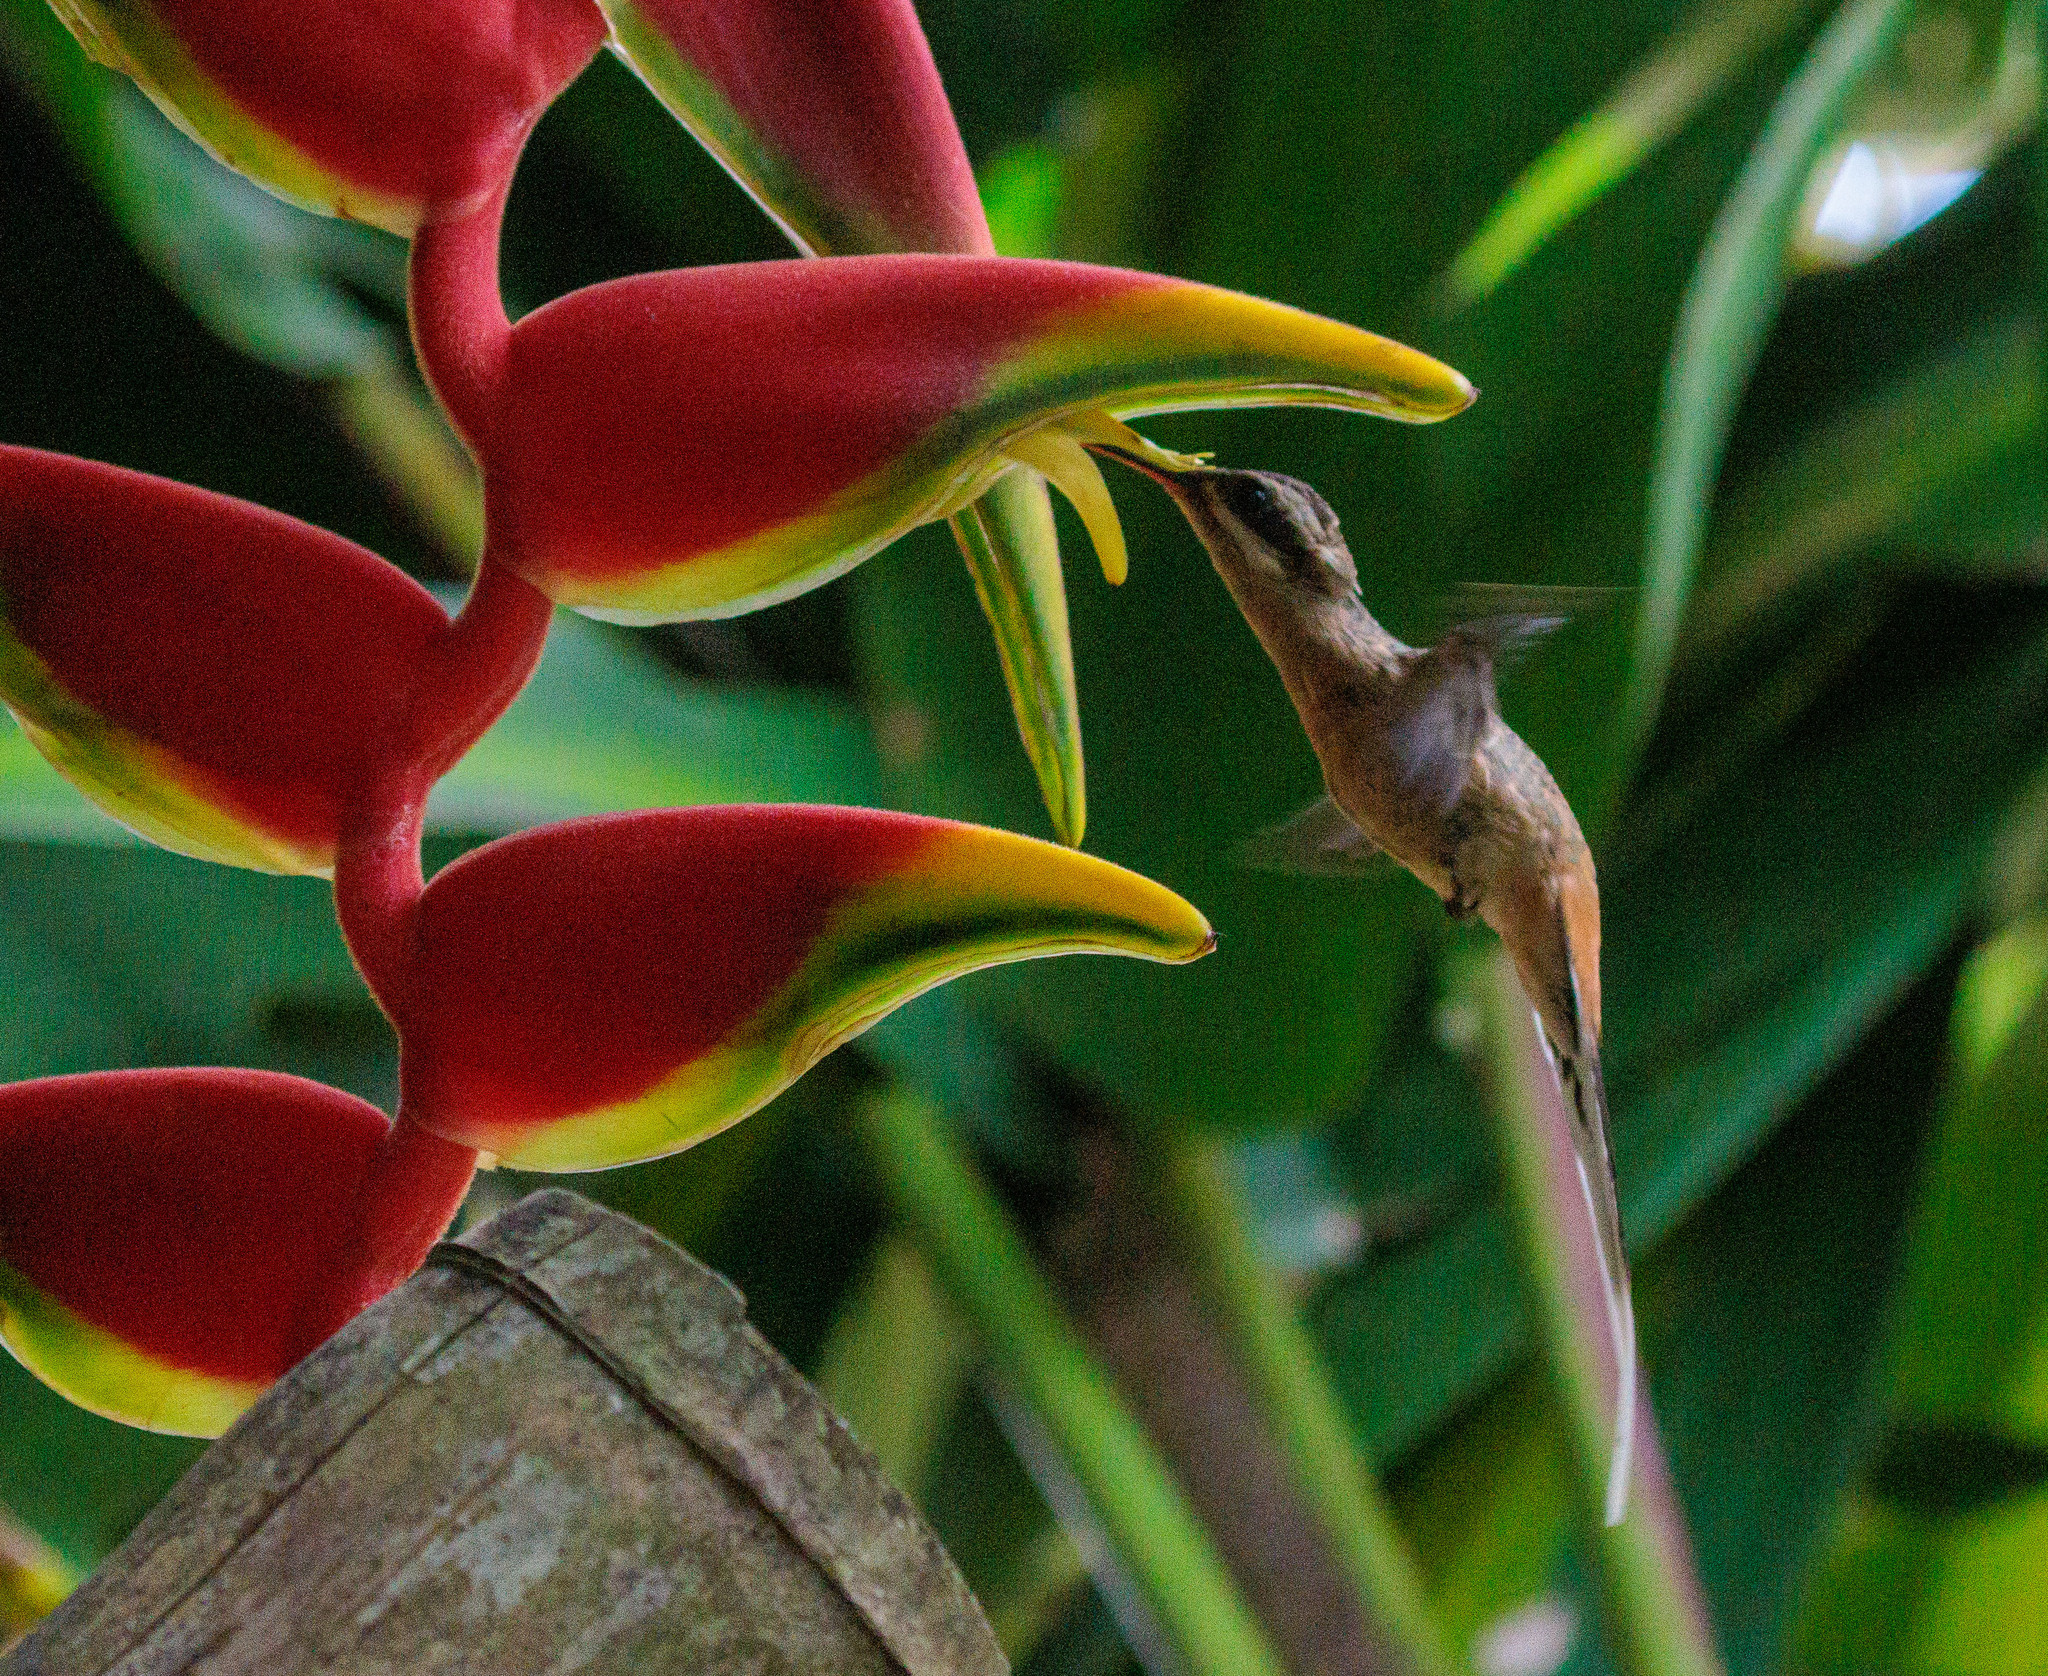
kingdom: Animalia
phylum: Chordata
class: Aves
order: Apodiformes
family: Trochilidae
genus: Phaethornis
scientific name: Phaethornis pretrei
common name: Planalto hermit
